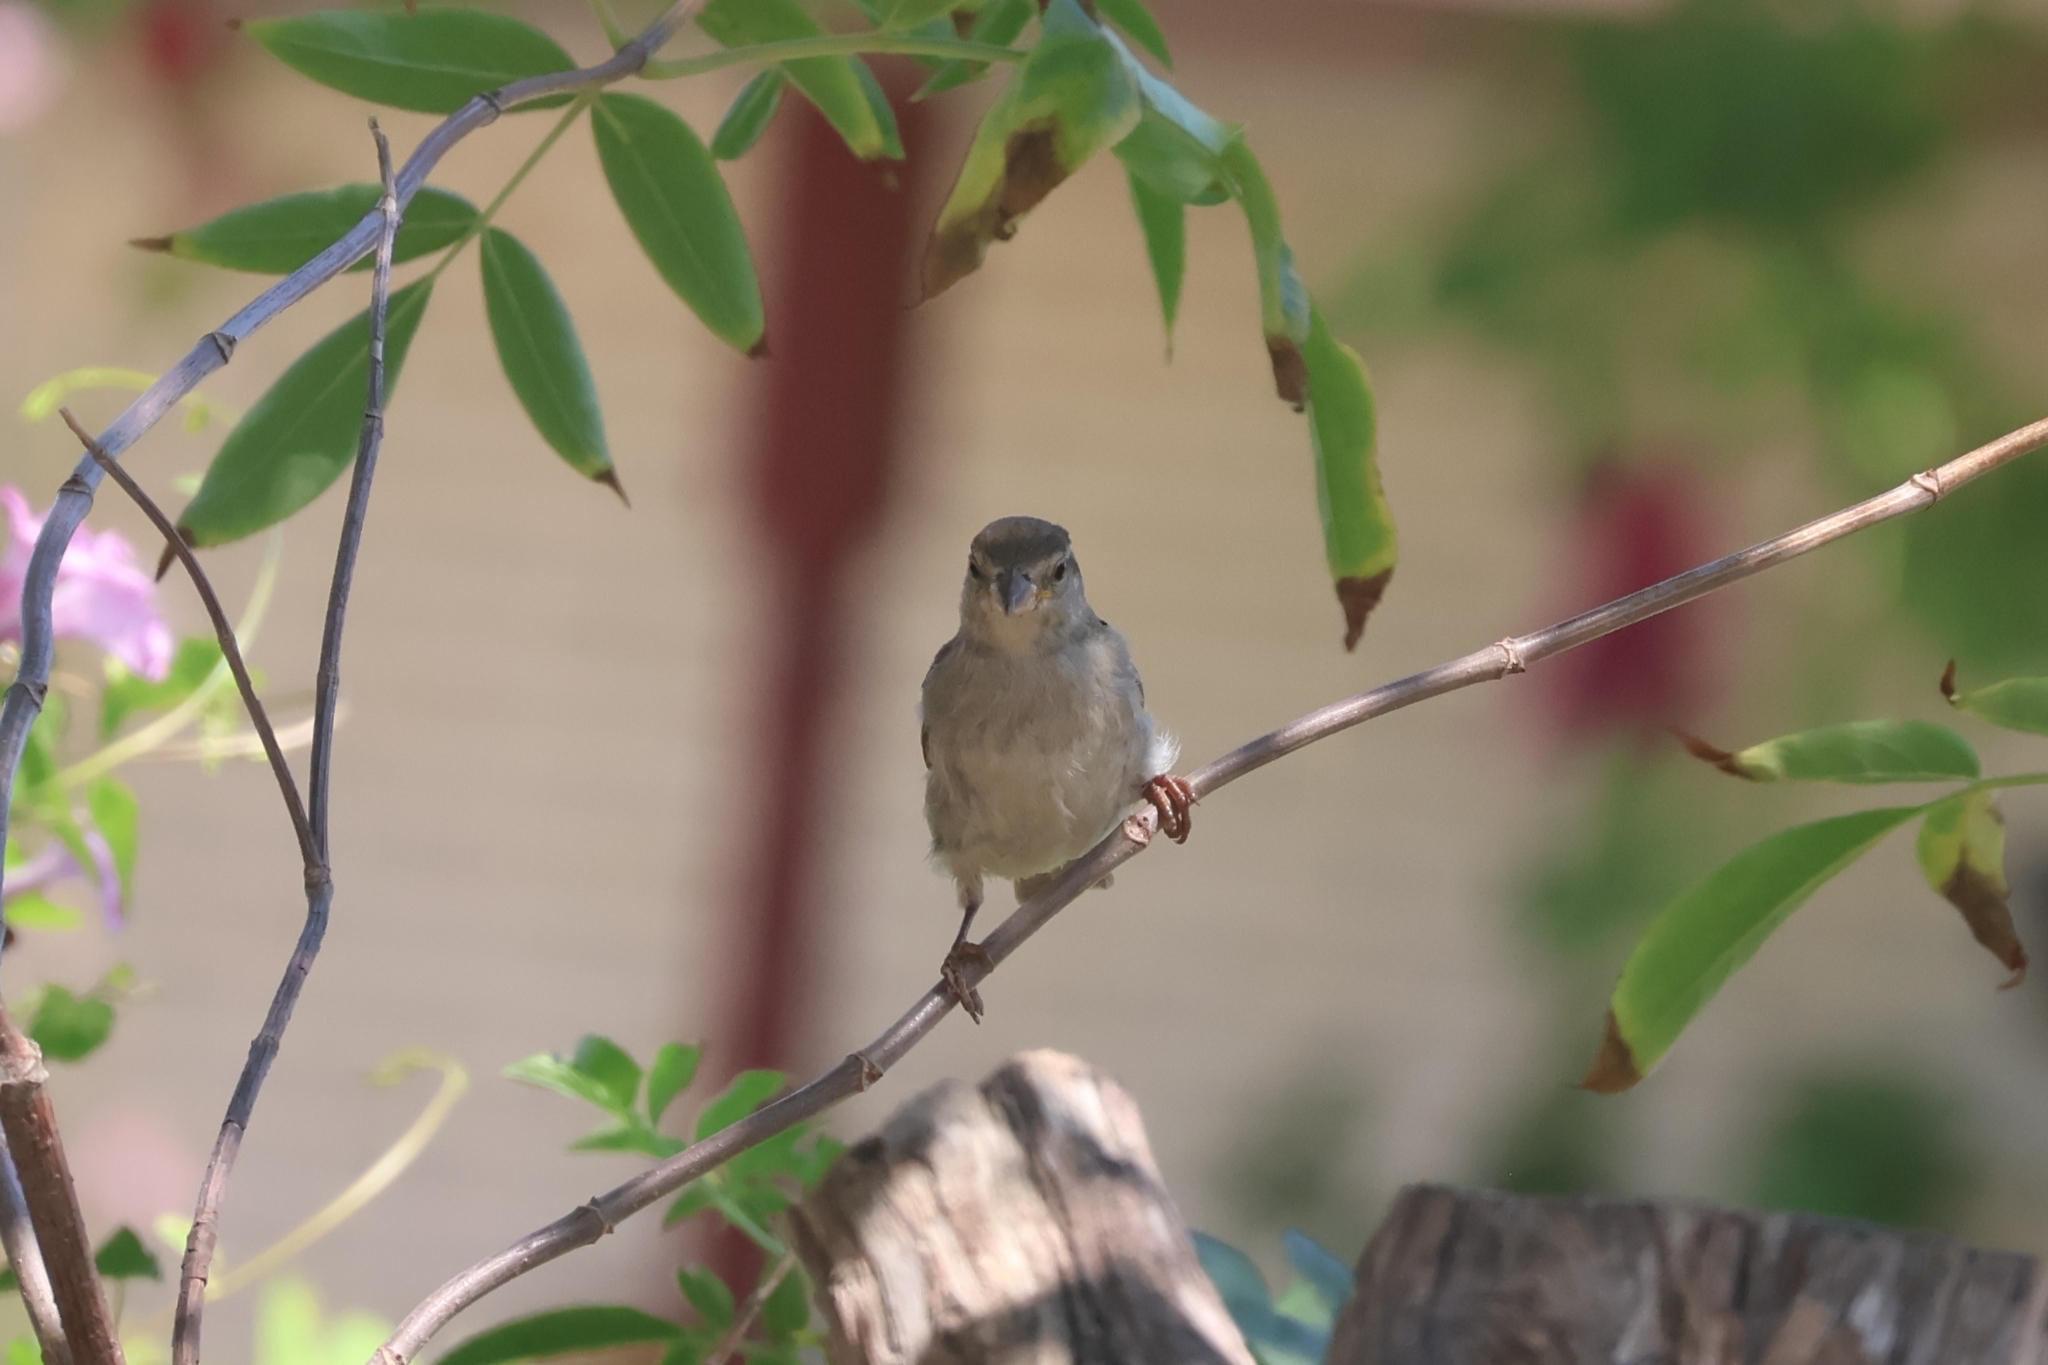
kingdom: Animalia
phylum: Chordata
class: Aves
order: Passeriformes
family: Passeridae
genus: Passer
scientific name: Passer domesticus
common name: House sparrow
